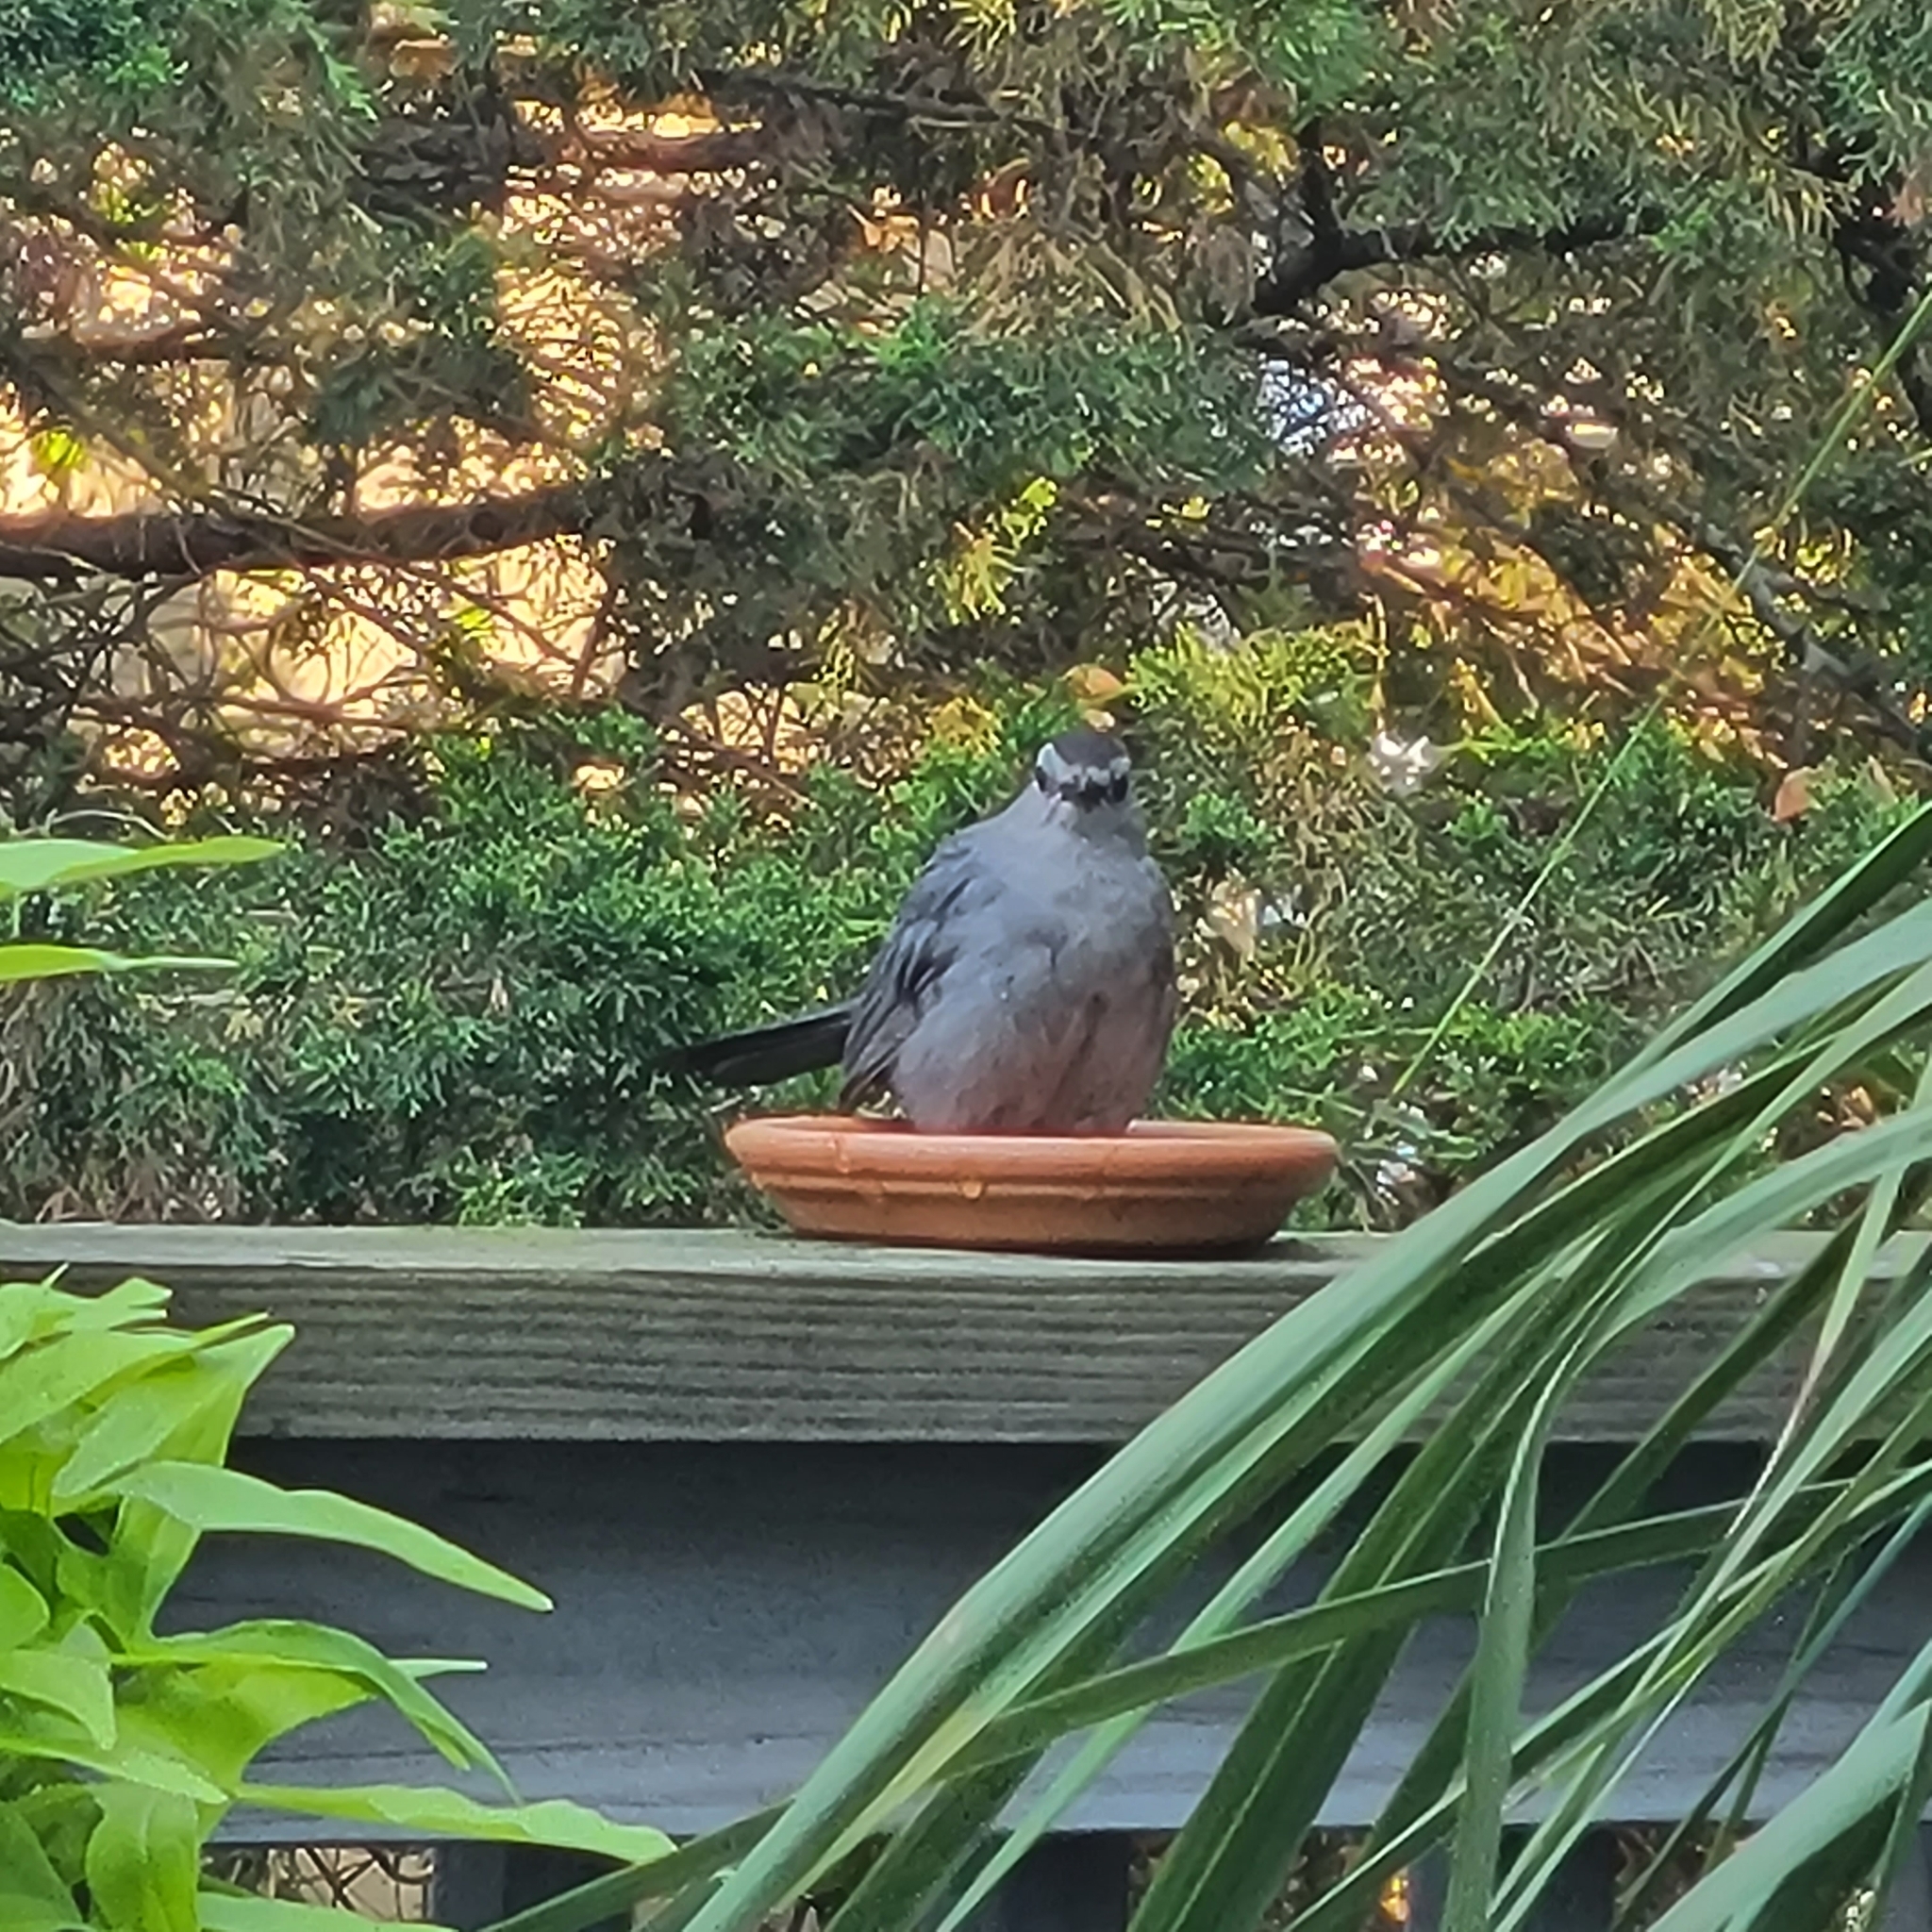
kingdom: Animalia
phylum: Chordata
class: Aves
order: Passeriformes
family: Mimidae
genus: Dumetella
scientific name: Dumetella carolinensis
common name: Gray catbird
